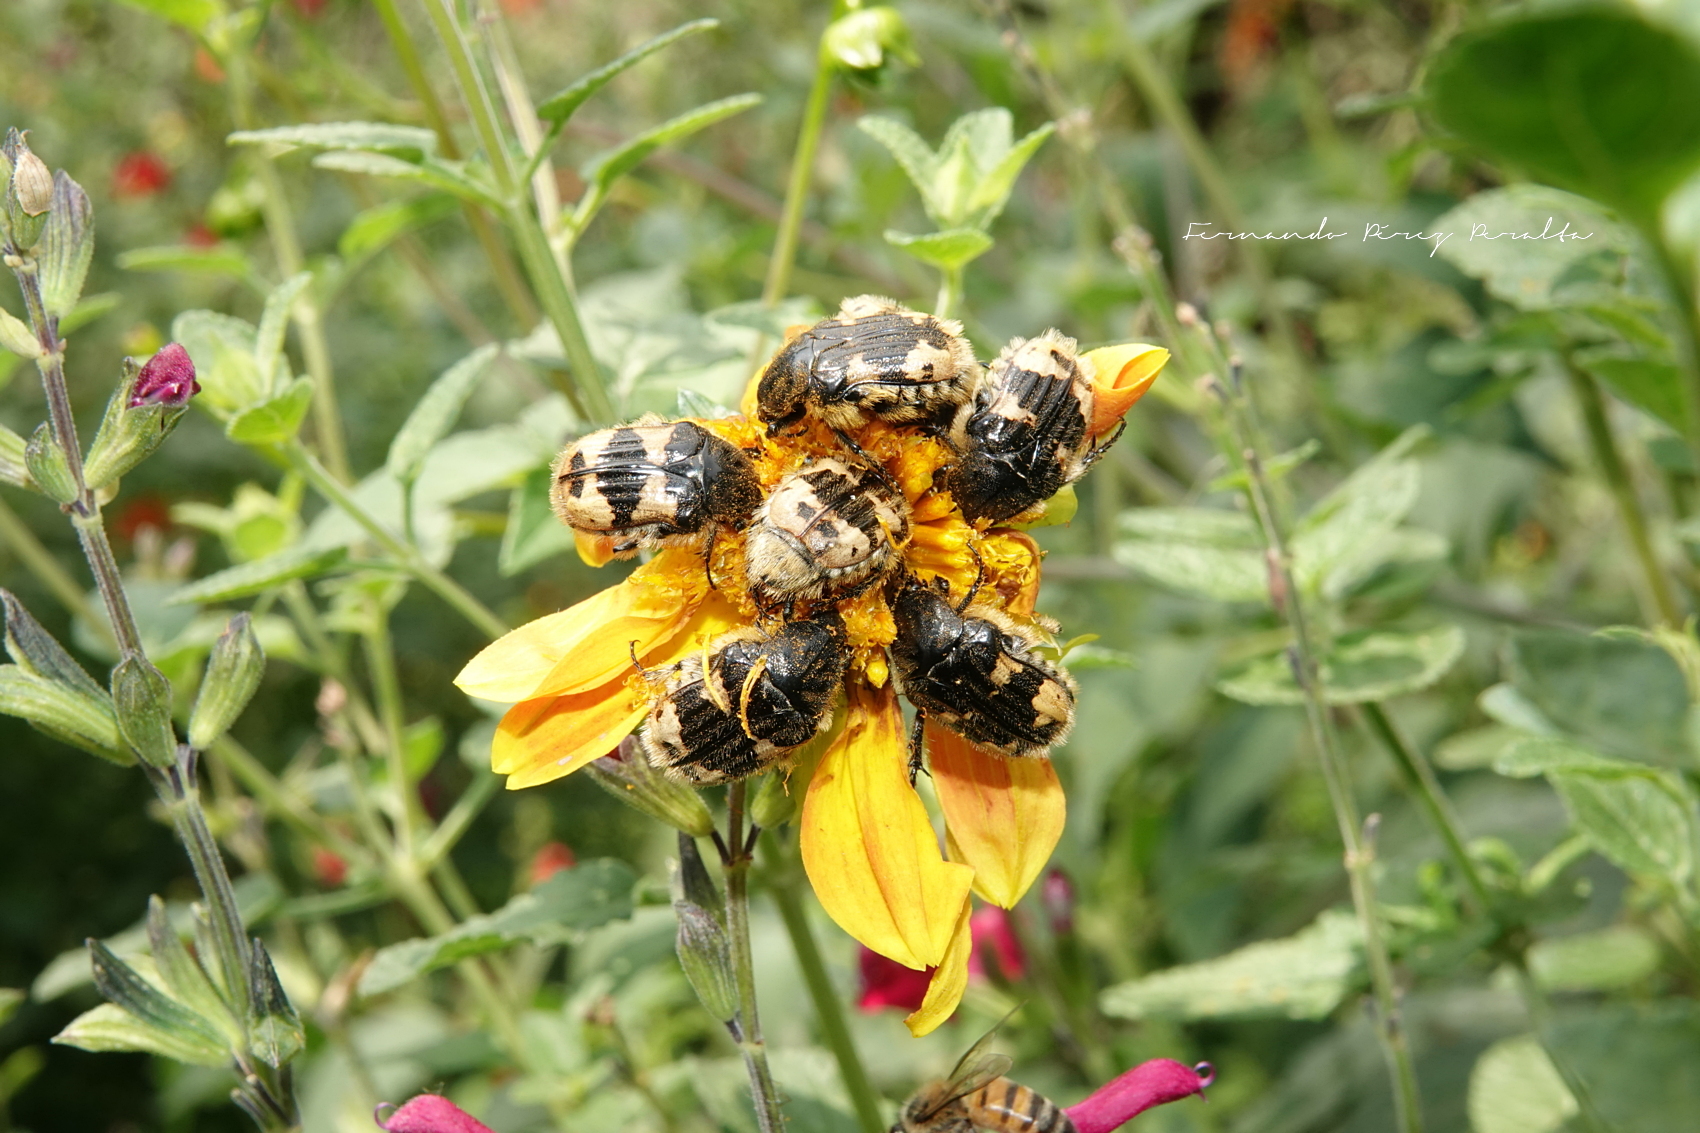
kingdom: Animalia
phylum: Arthropoda
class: Insecta
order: Coleoptera
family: Scarabaeidae
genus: Euphoria
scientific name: Euphoria basalis
